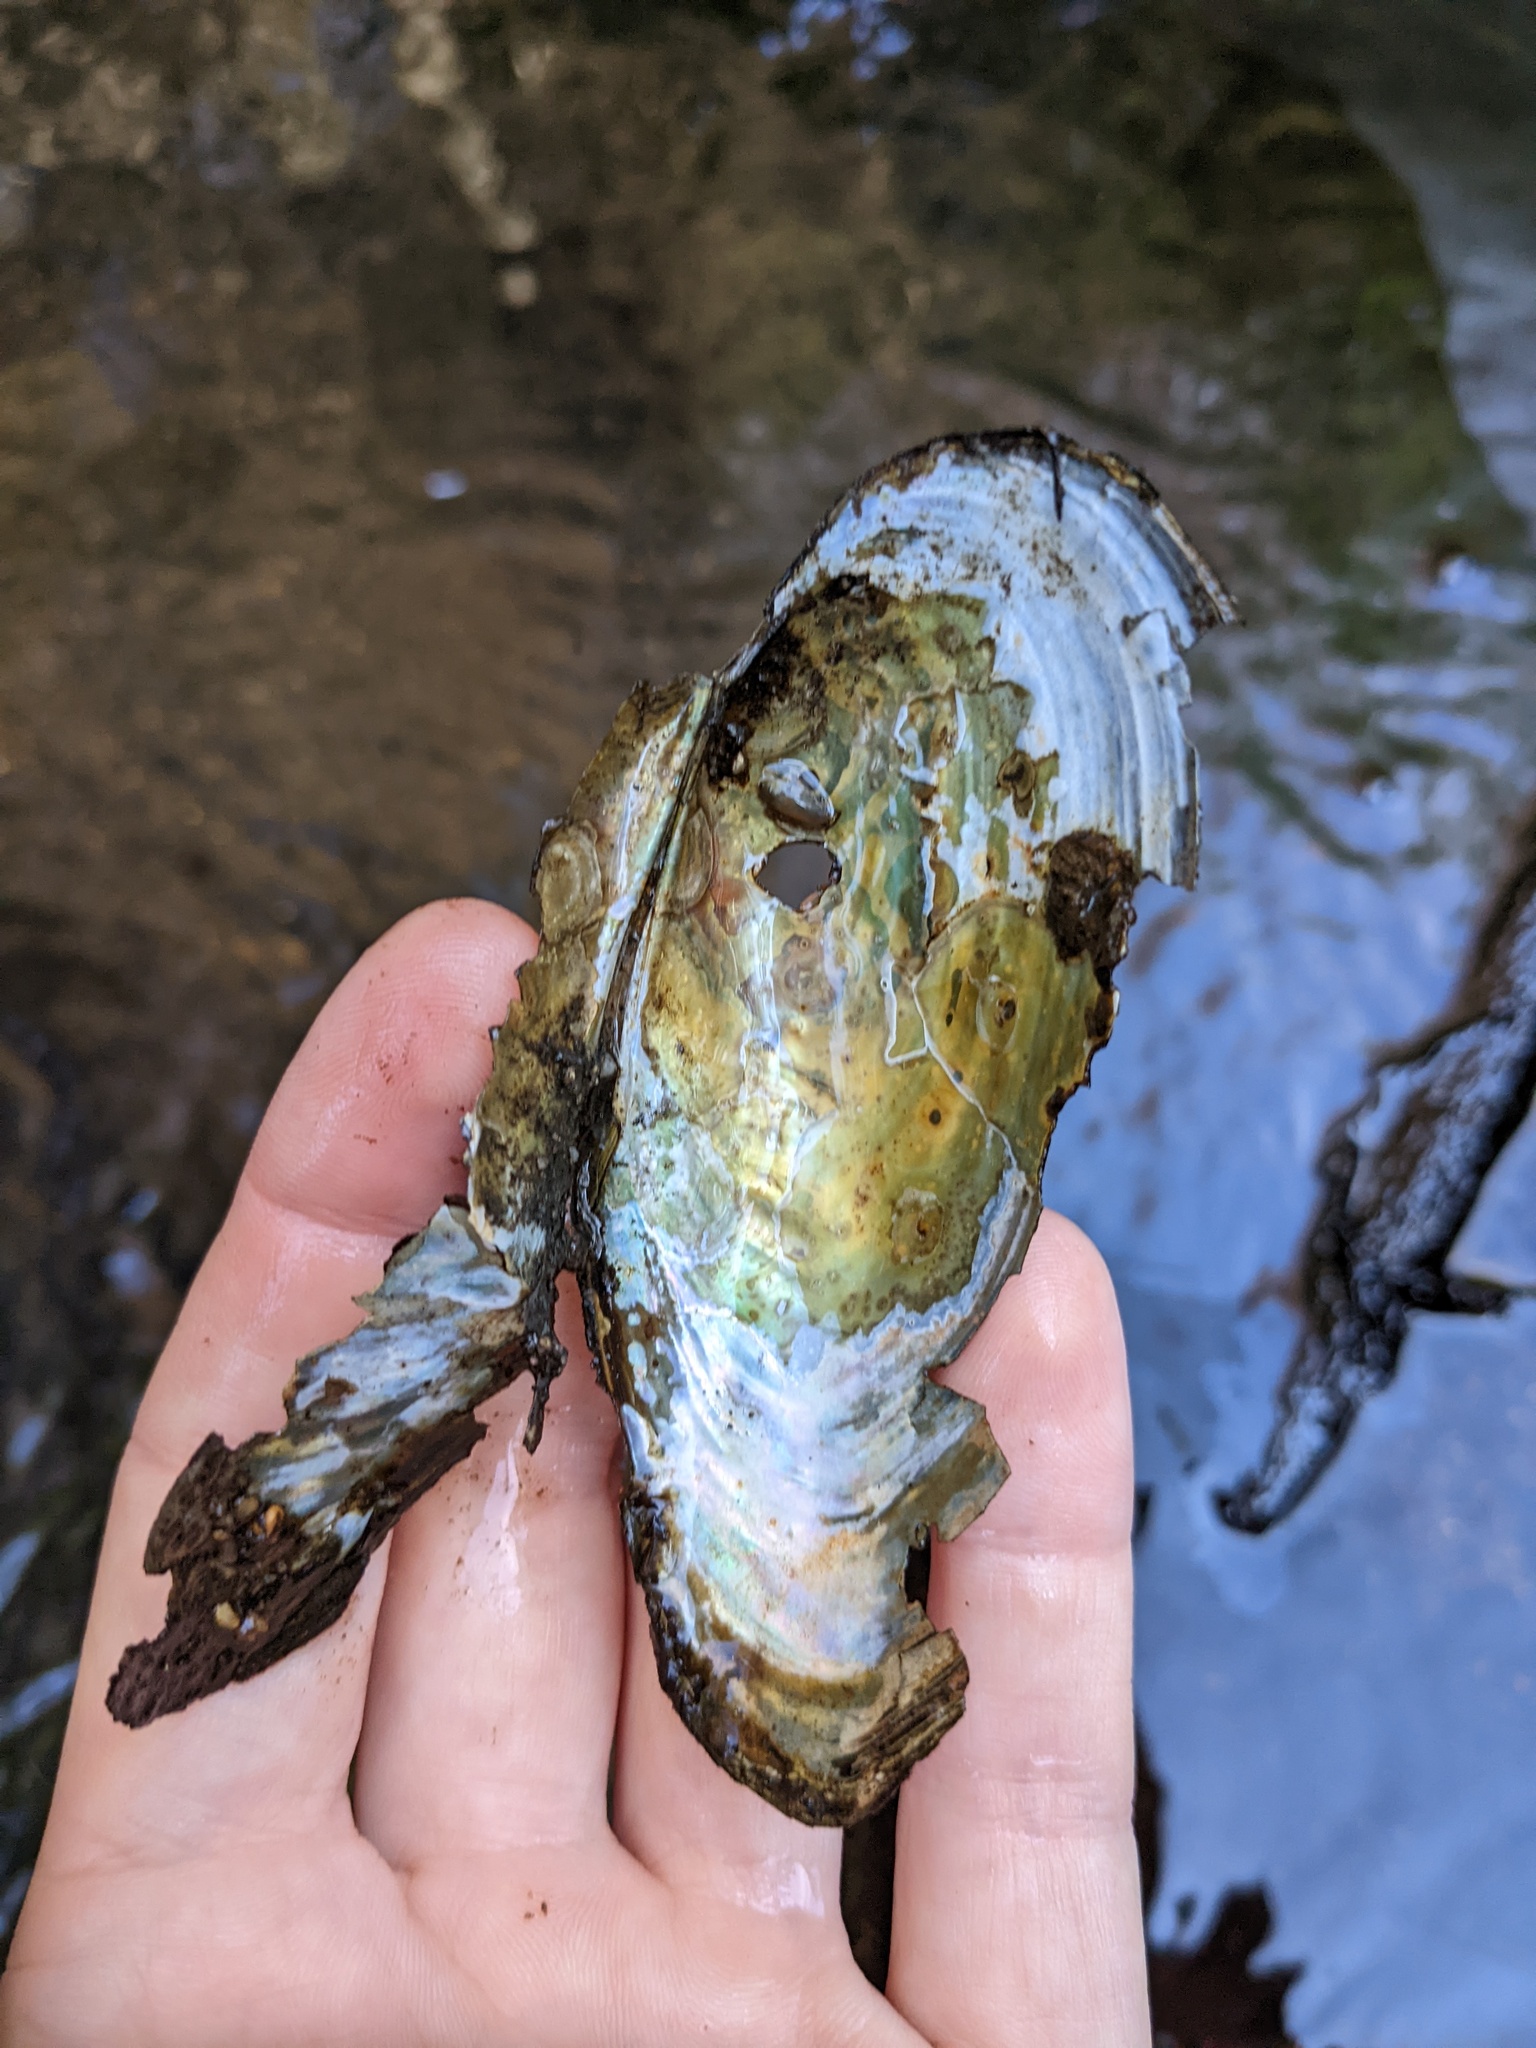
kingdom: Animalia
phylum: Mollusca
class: Bivalvia
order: Unionida
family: Unionidae
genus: Pyganodon
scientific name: Pyganodon cataracta
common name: Eastern floater
